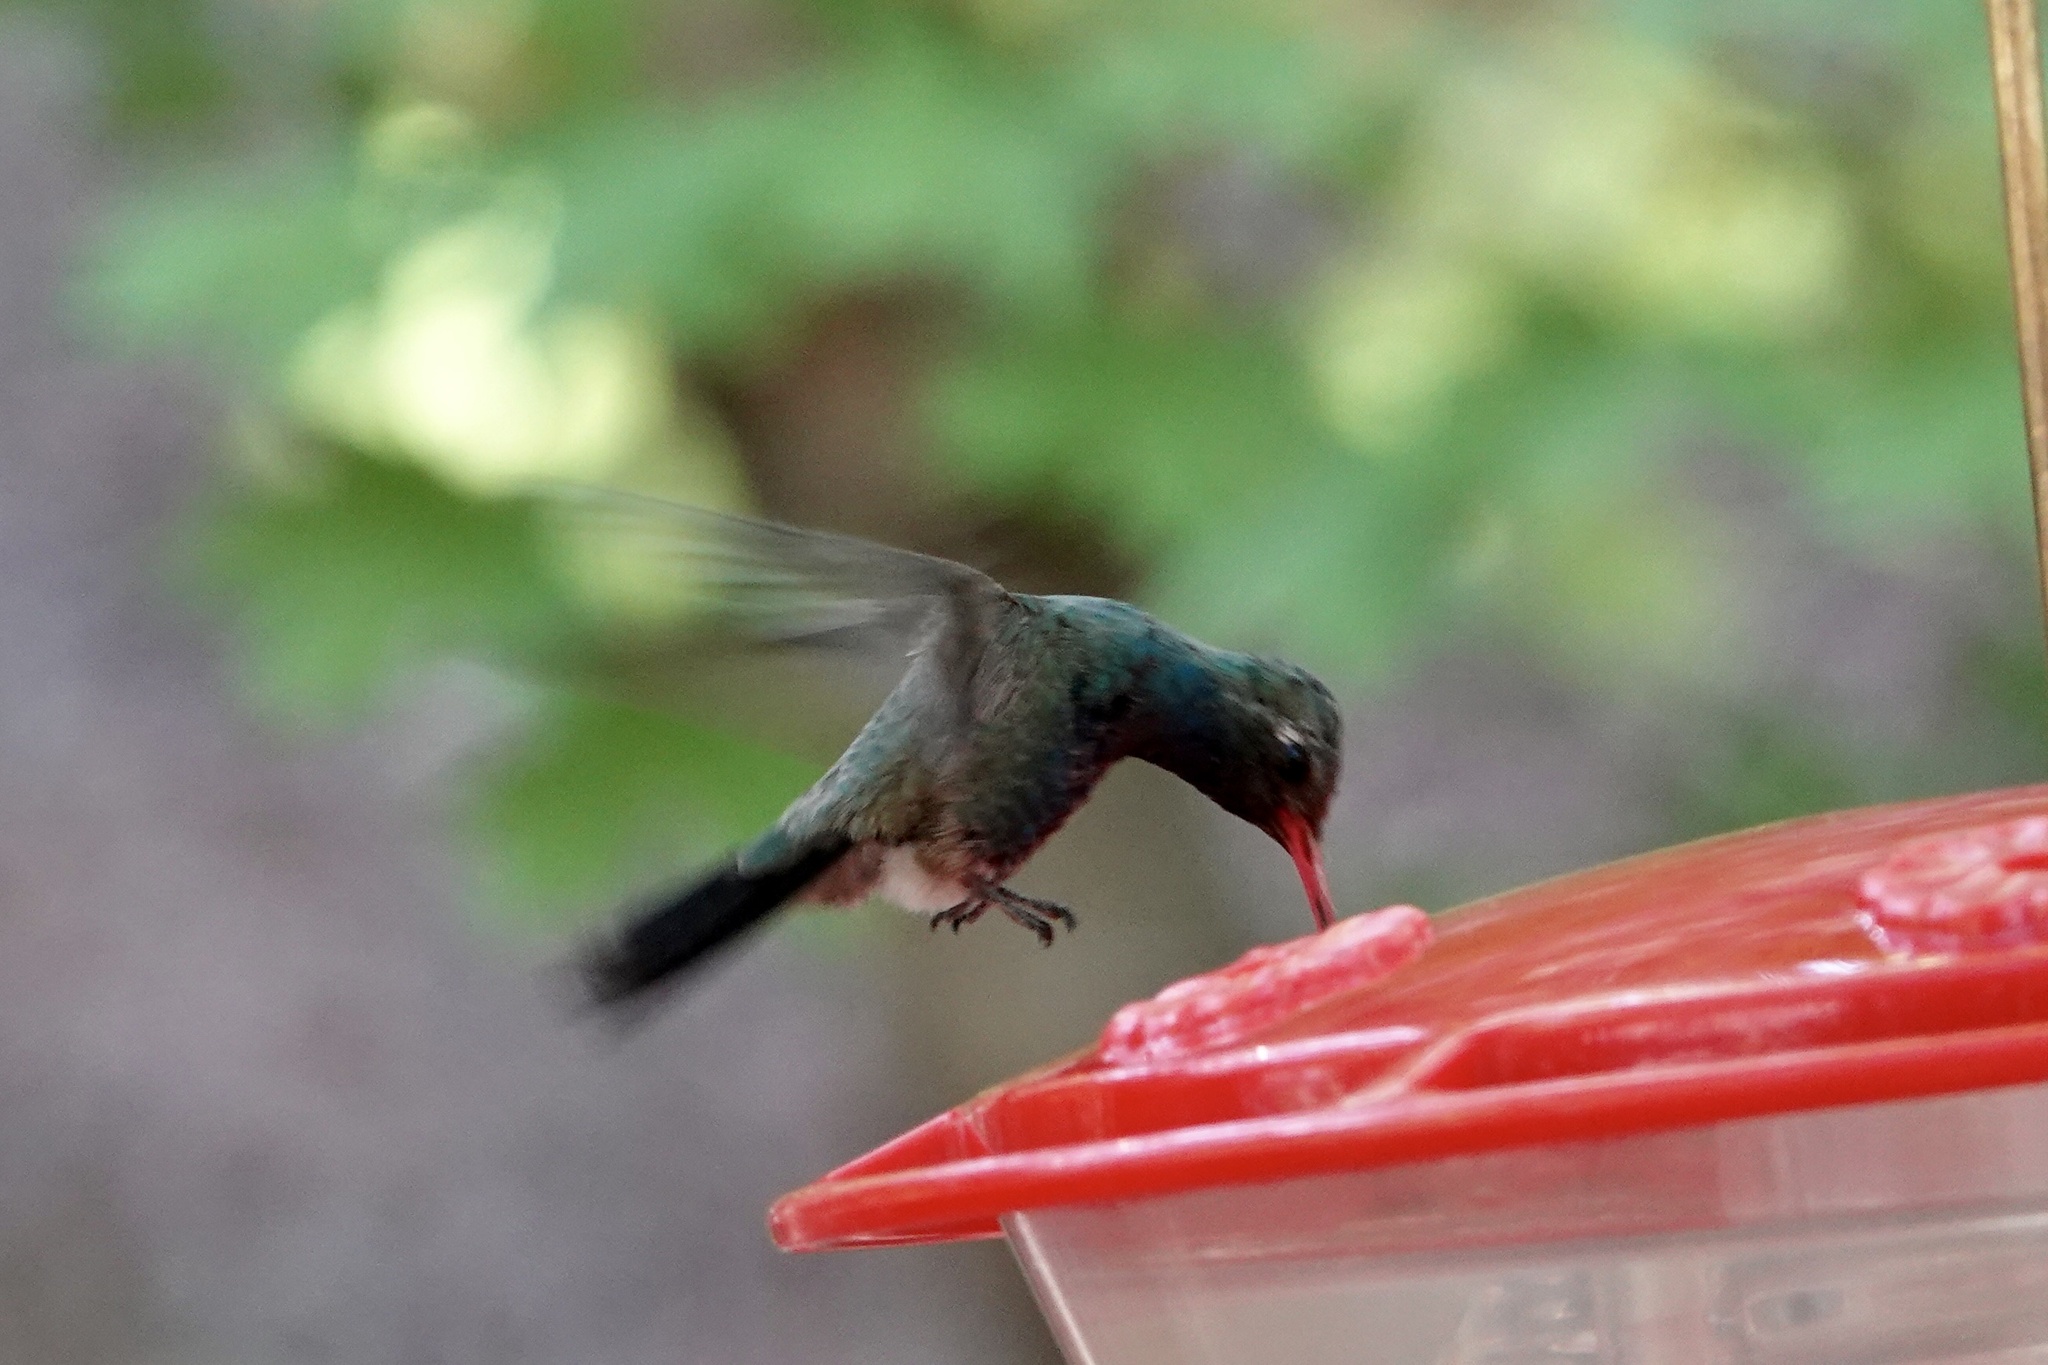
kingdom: Animalia
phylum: Chordata
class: Aves
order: Apodiformes
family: Trochilidae
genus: Cynanthus
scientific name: Cynanthus latirostris
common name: Broad-billed hummingbird
